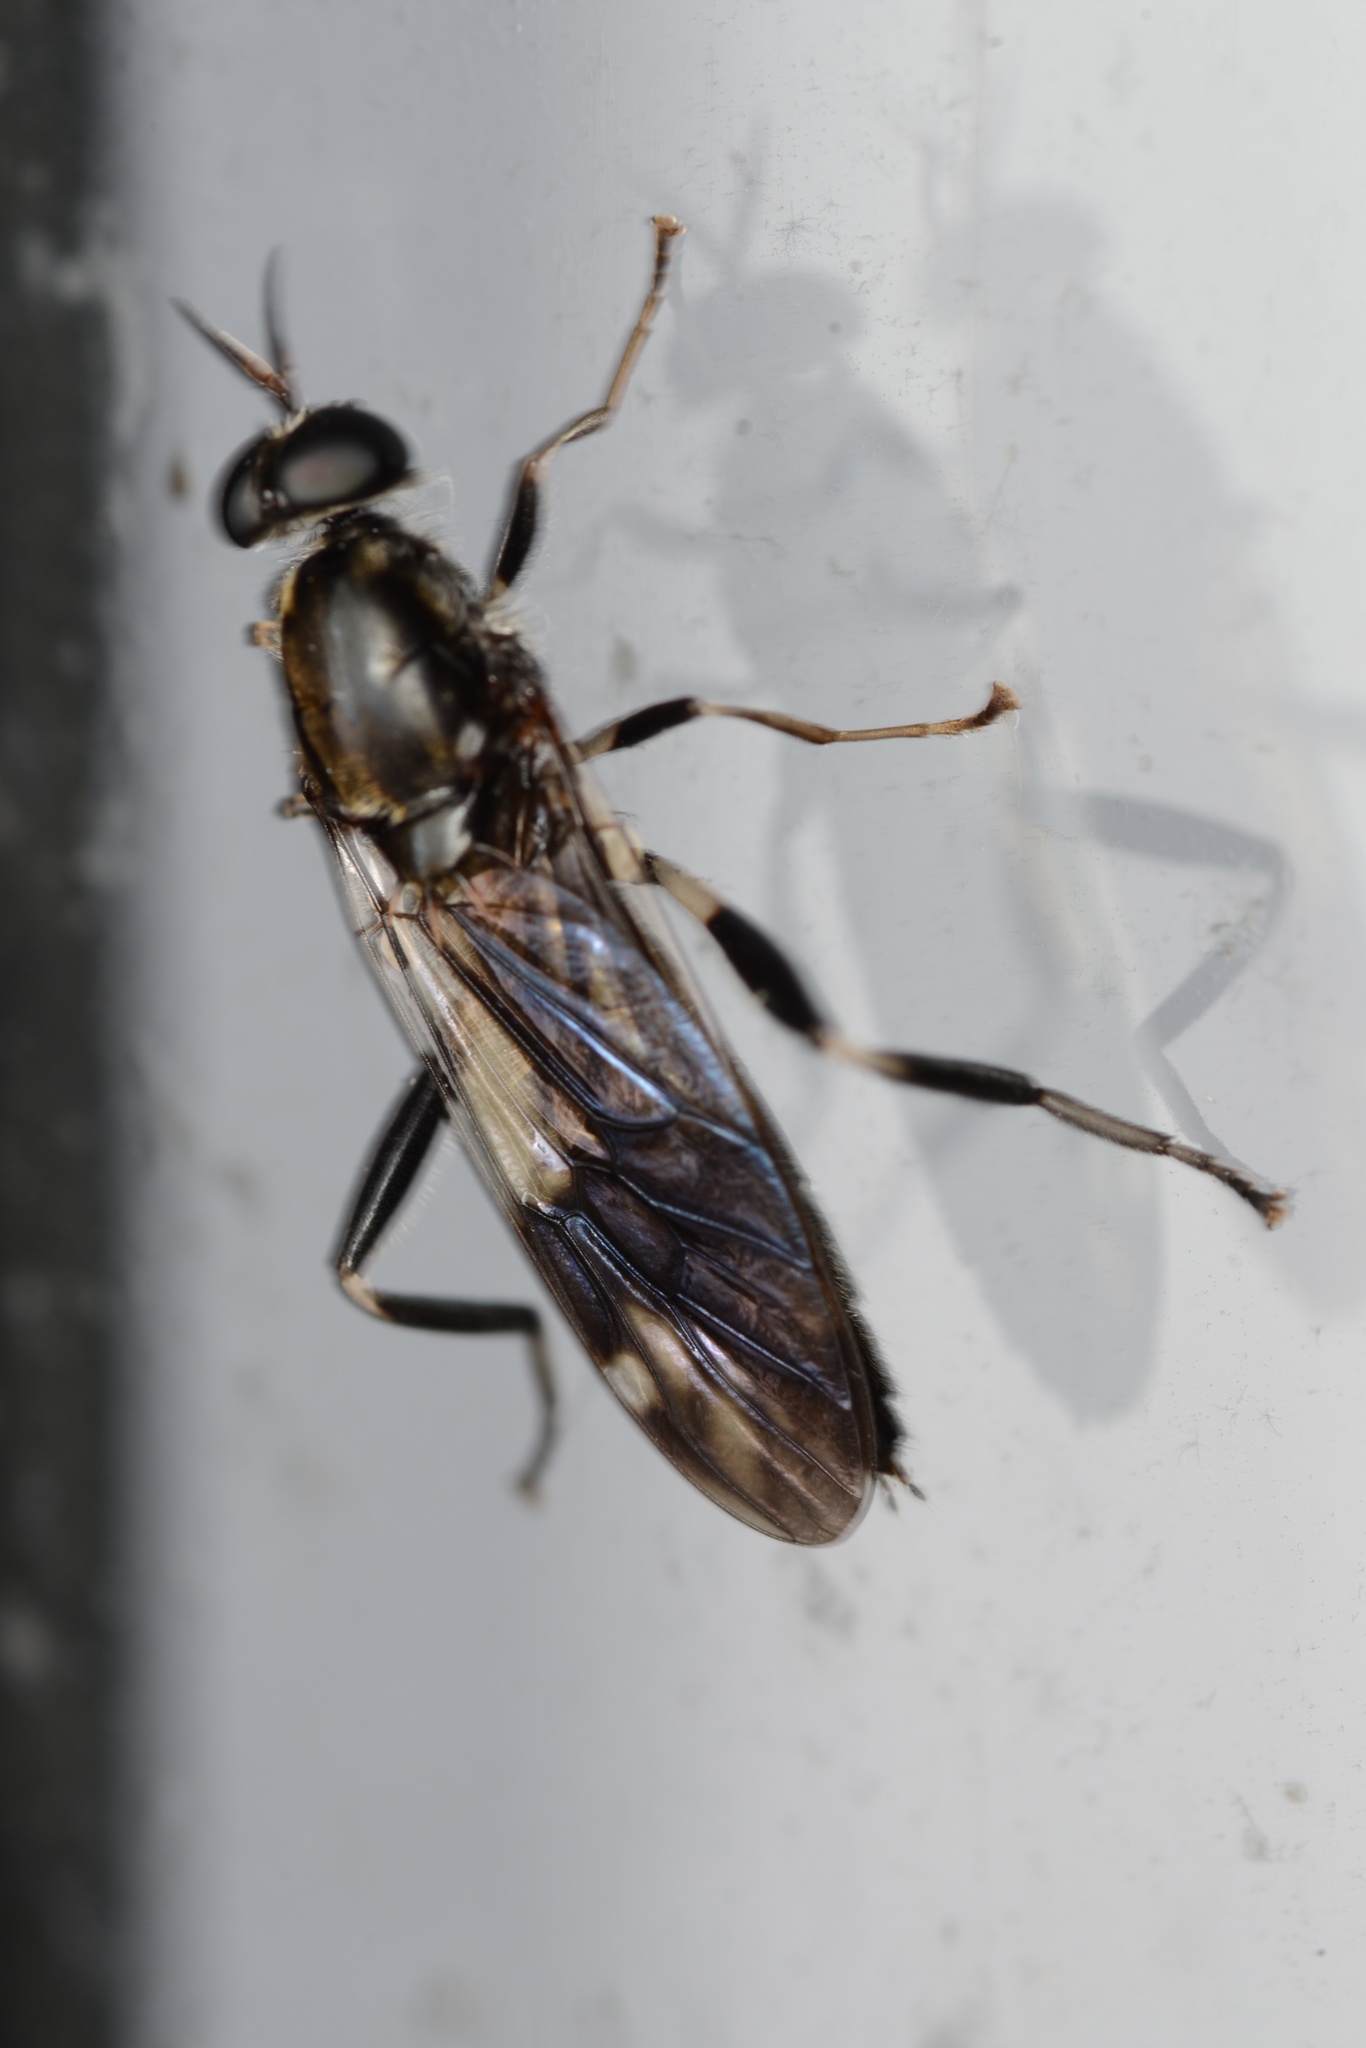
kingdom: Animalia
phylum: Arthropoda
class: Insecta
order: Diptera
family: Stratiomyidae
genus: Exaireta
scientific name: Exaireta spinigera
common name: Blue soldier fly
